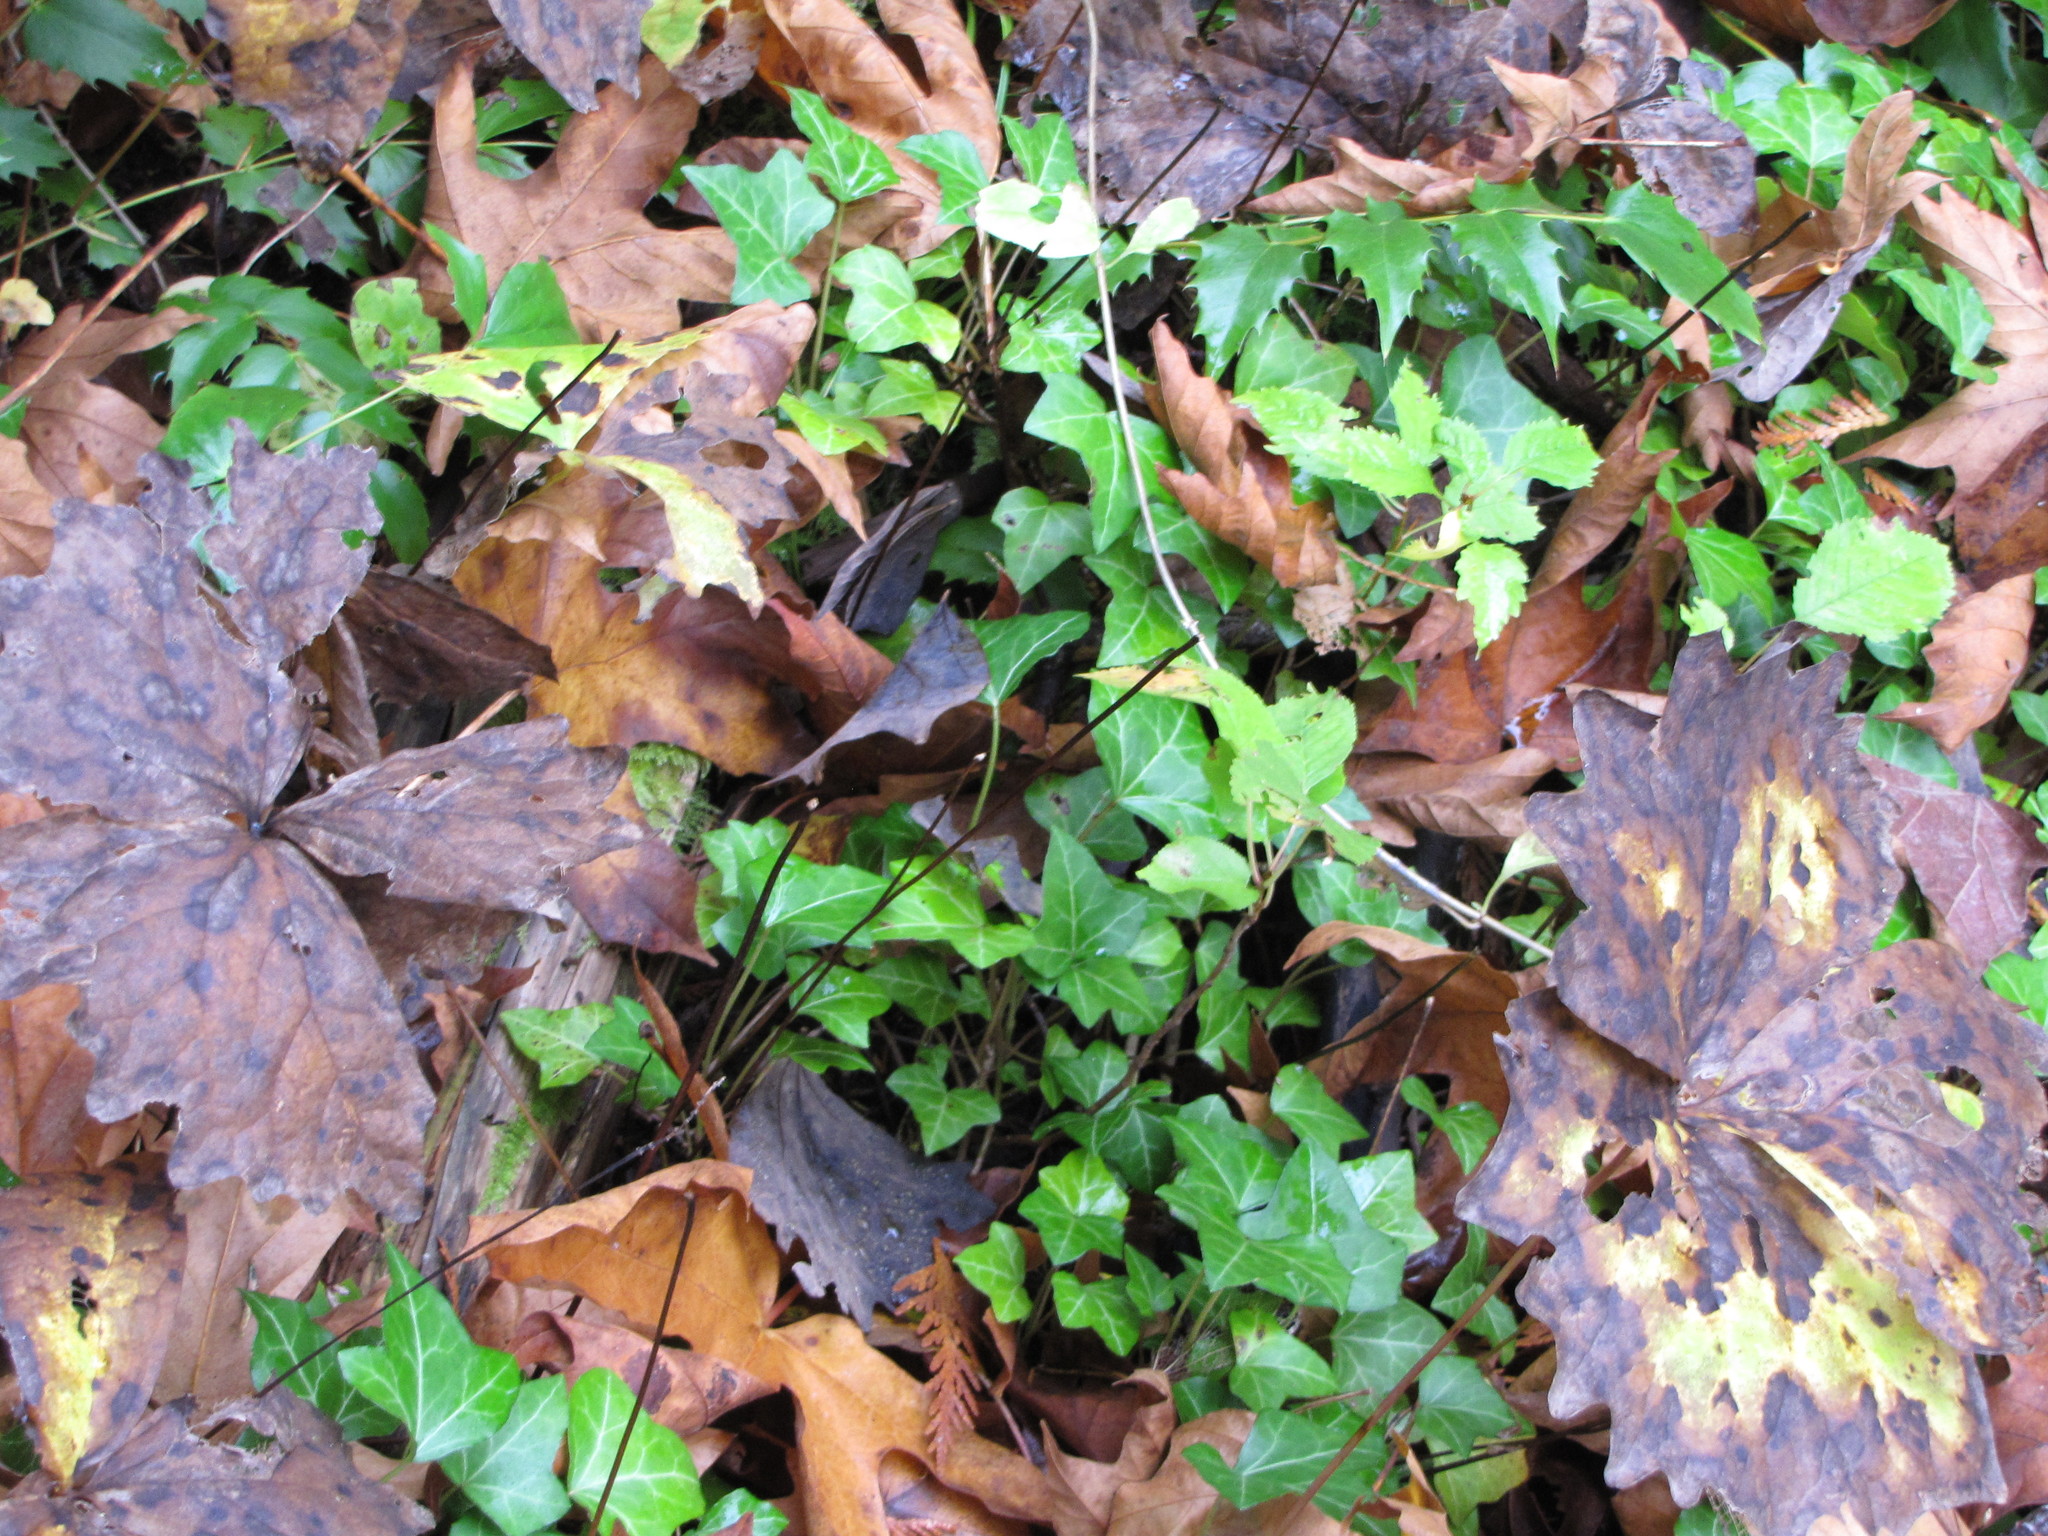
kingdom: Plantae
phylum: Tracheophyta
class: Magnoliopsida
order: Apiales
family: Araliaceae
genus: Hedera
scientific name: Hedera helix
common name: Ivy
